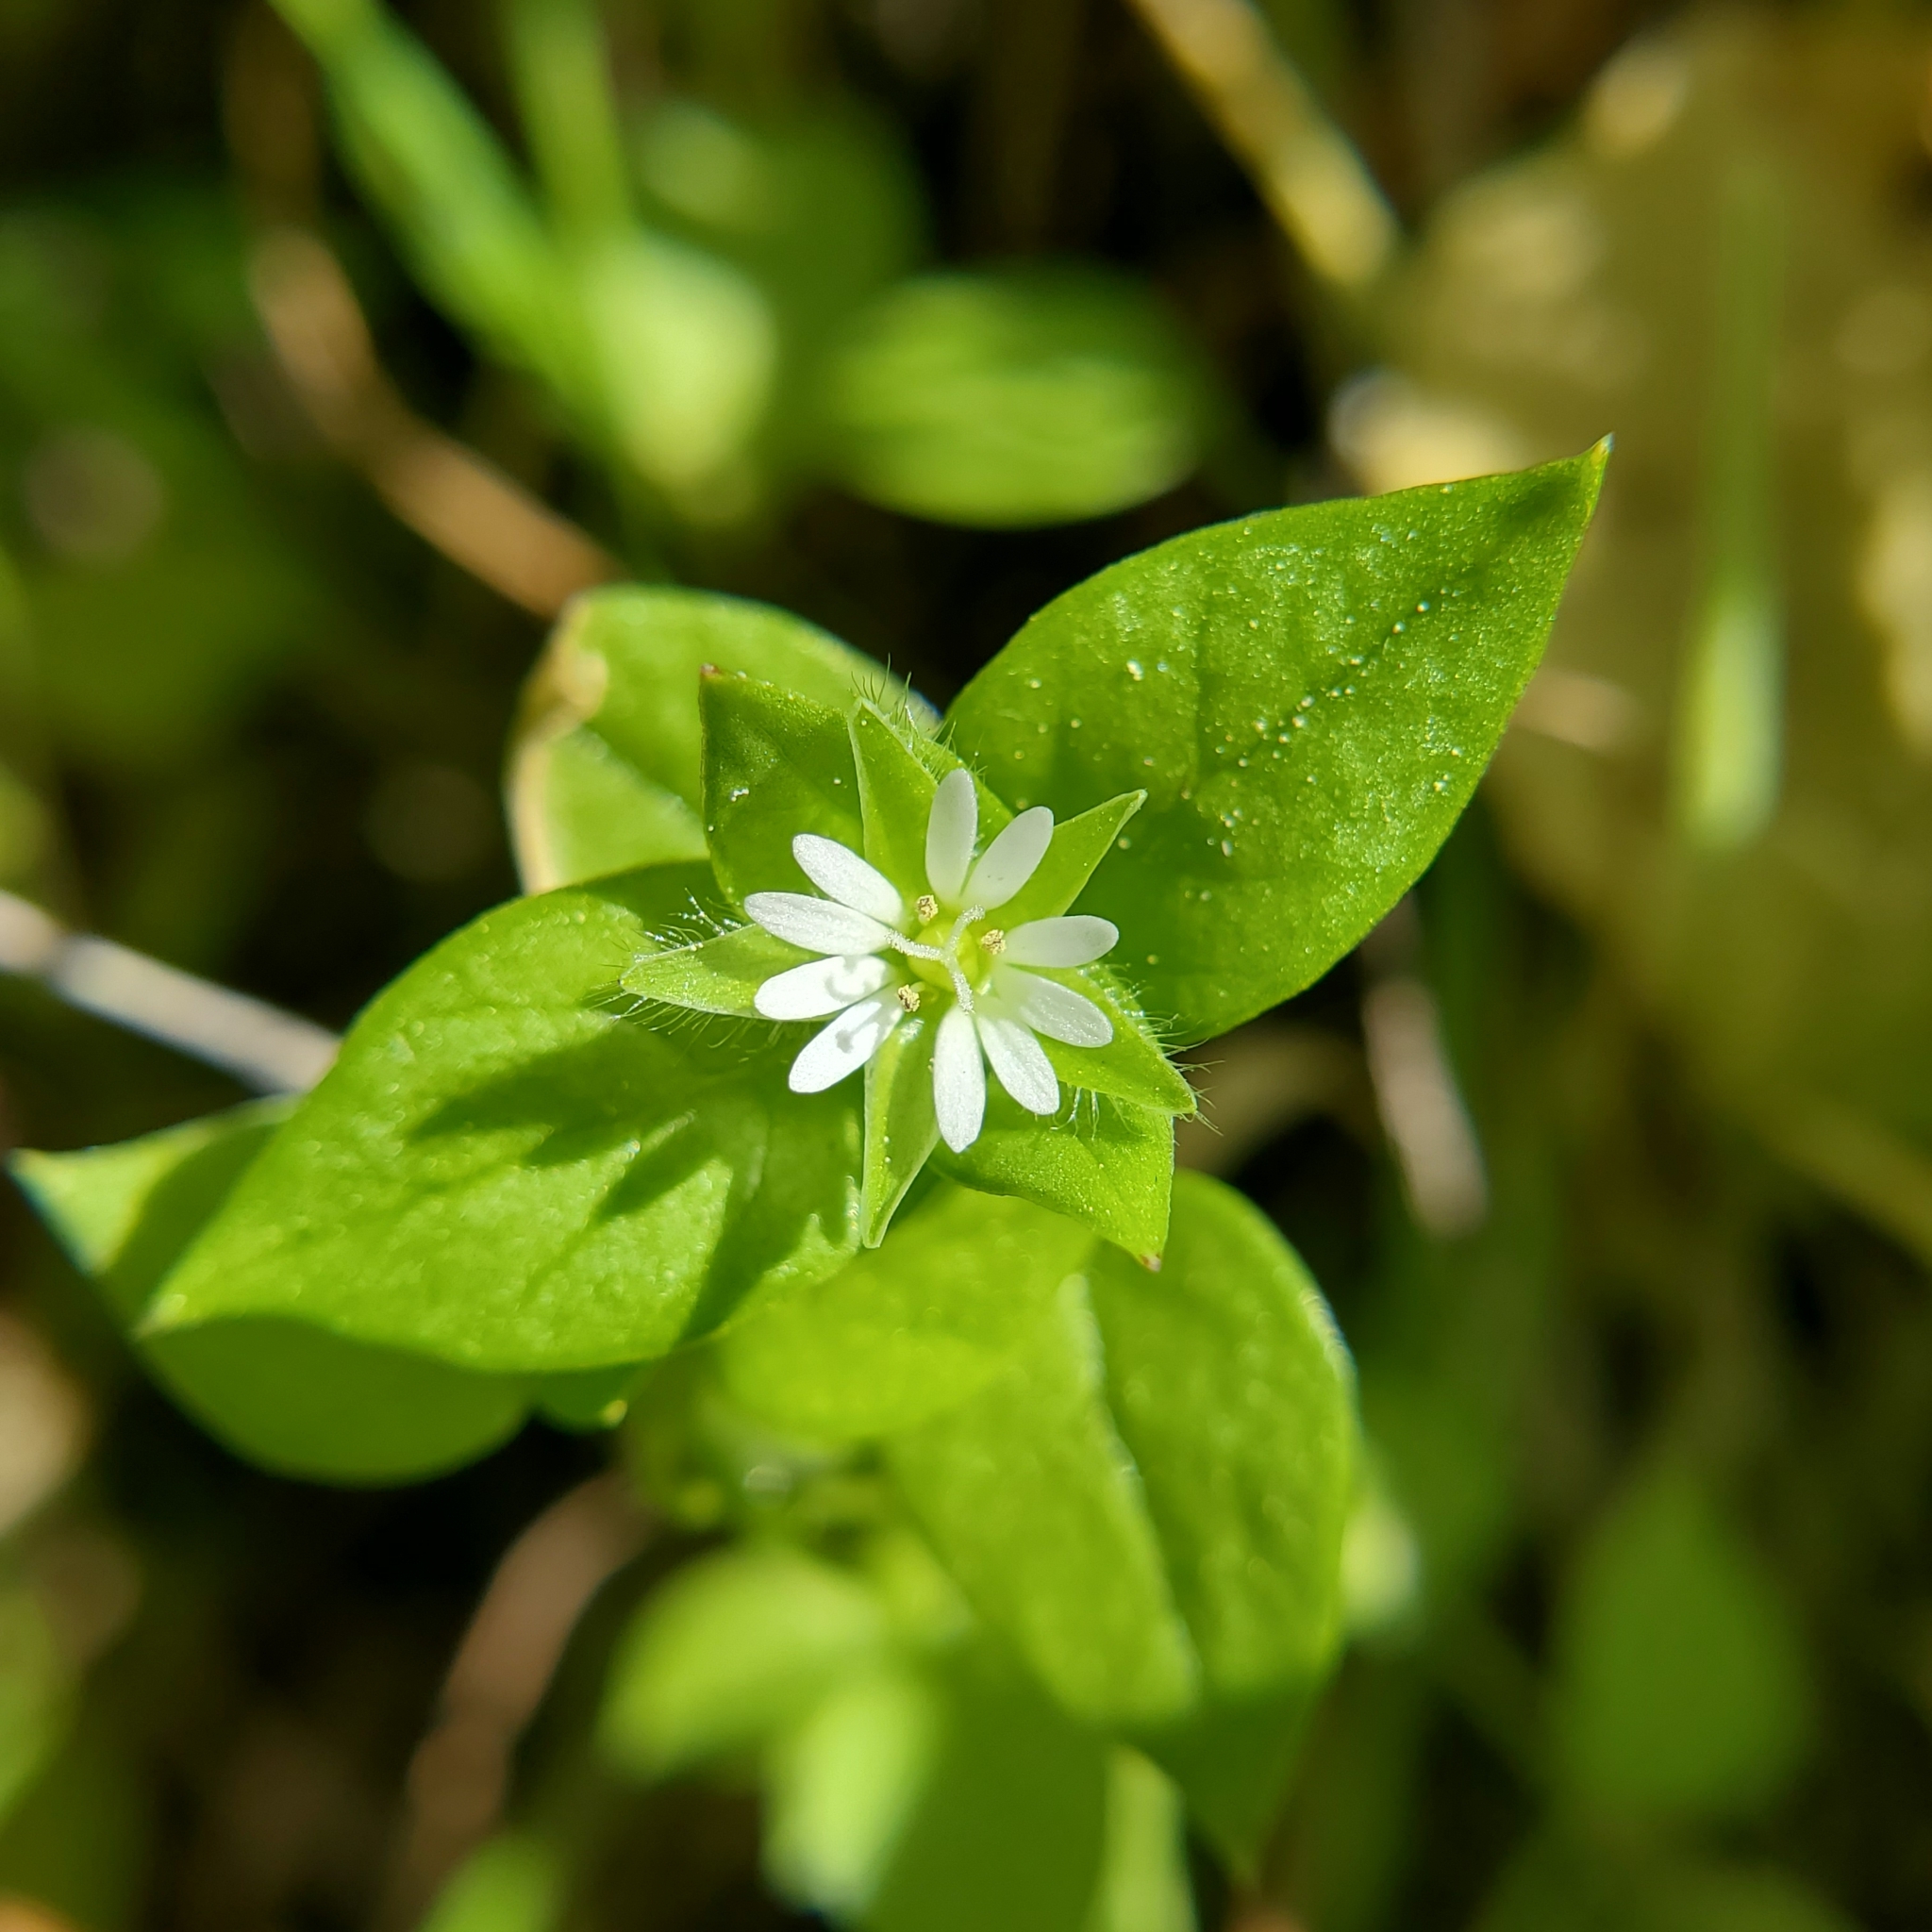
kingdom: Plantae
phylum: Tracheophyta
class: Magnoliopsida
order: Caryophyllales
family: Caryophyllaceae
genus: Stellaria
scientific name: Stellaria media
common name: Common chickweed
